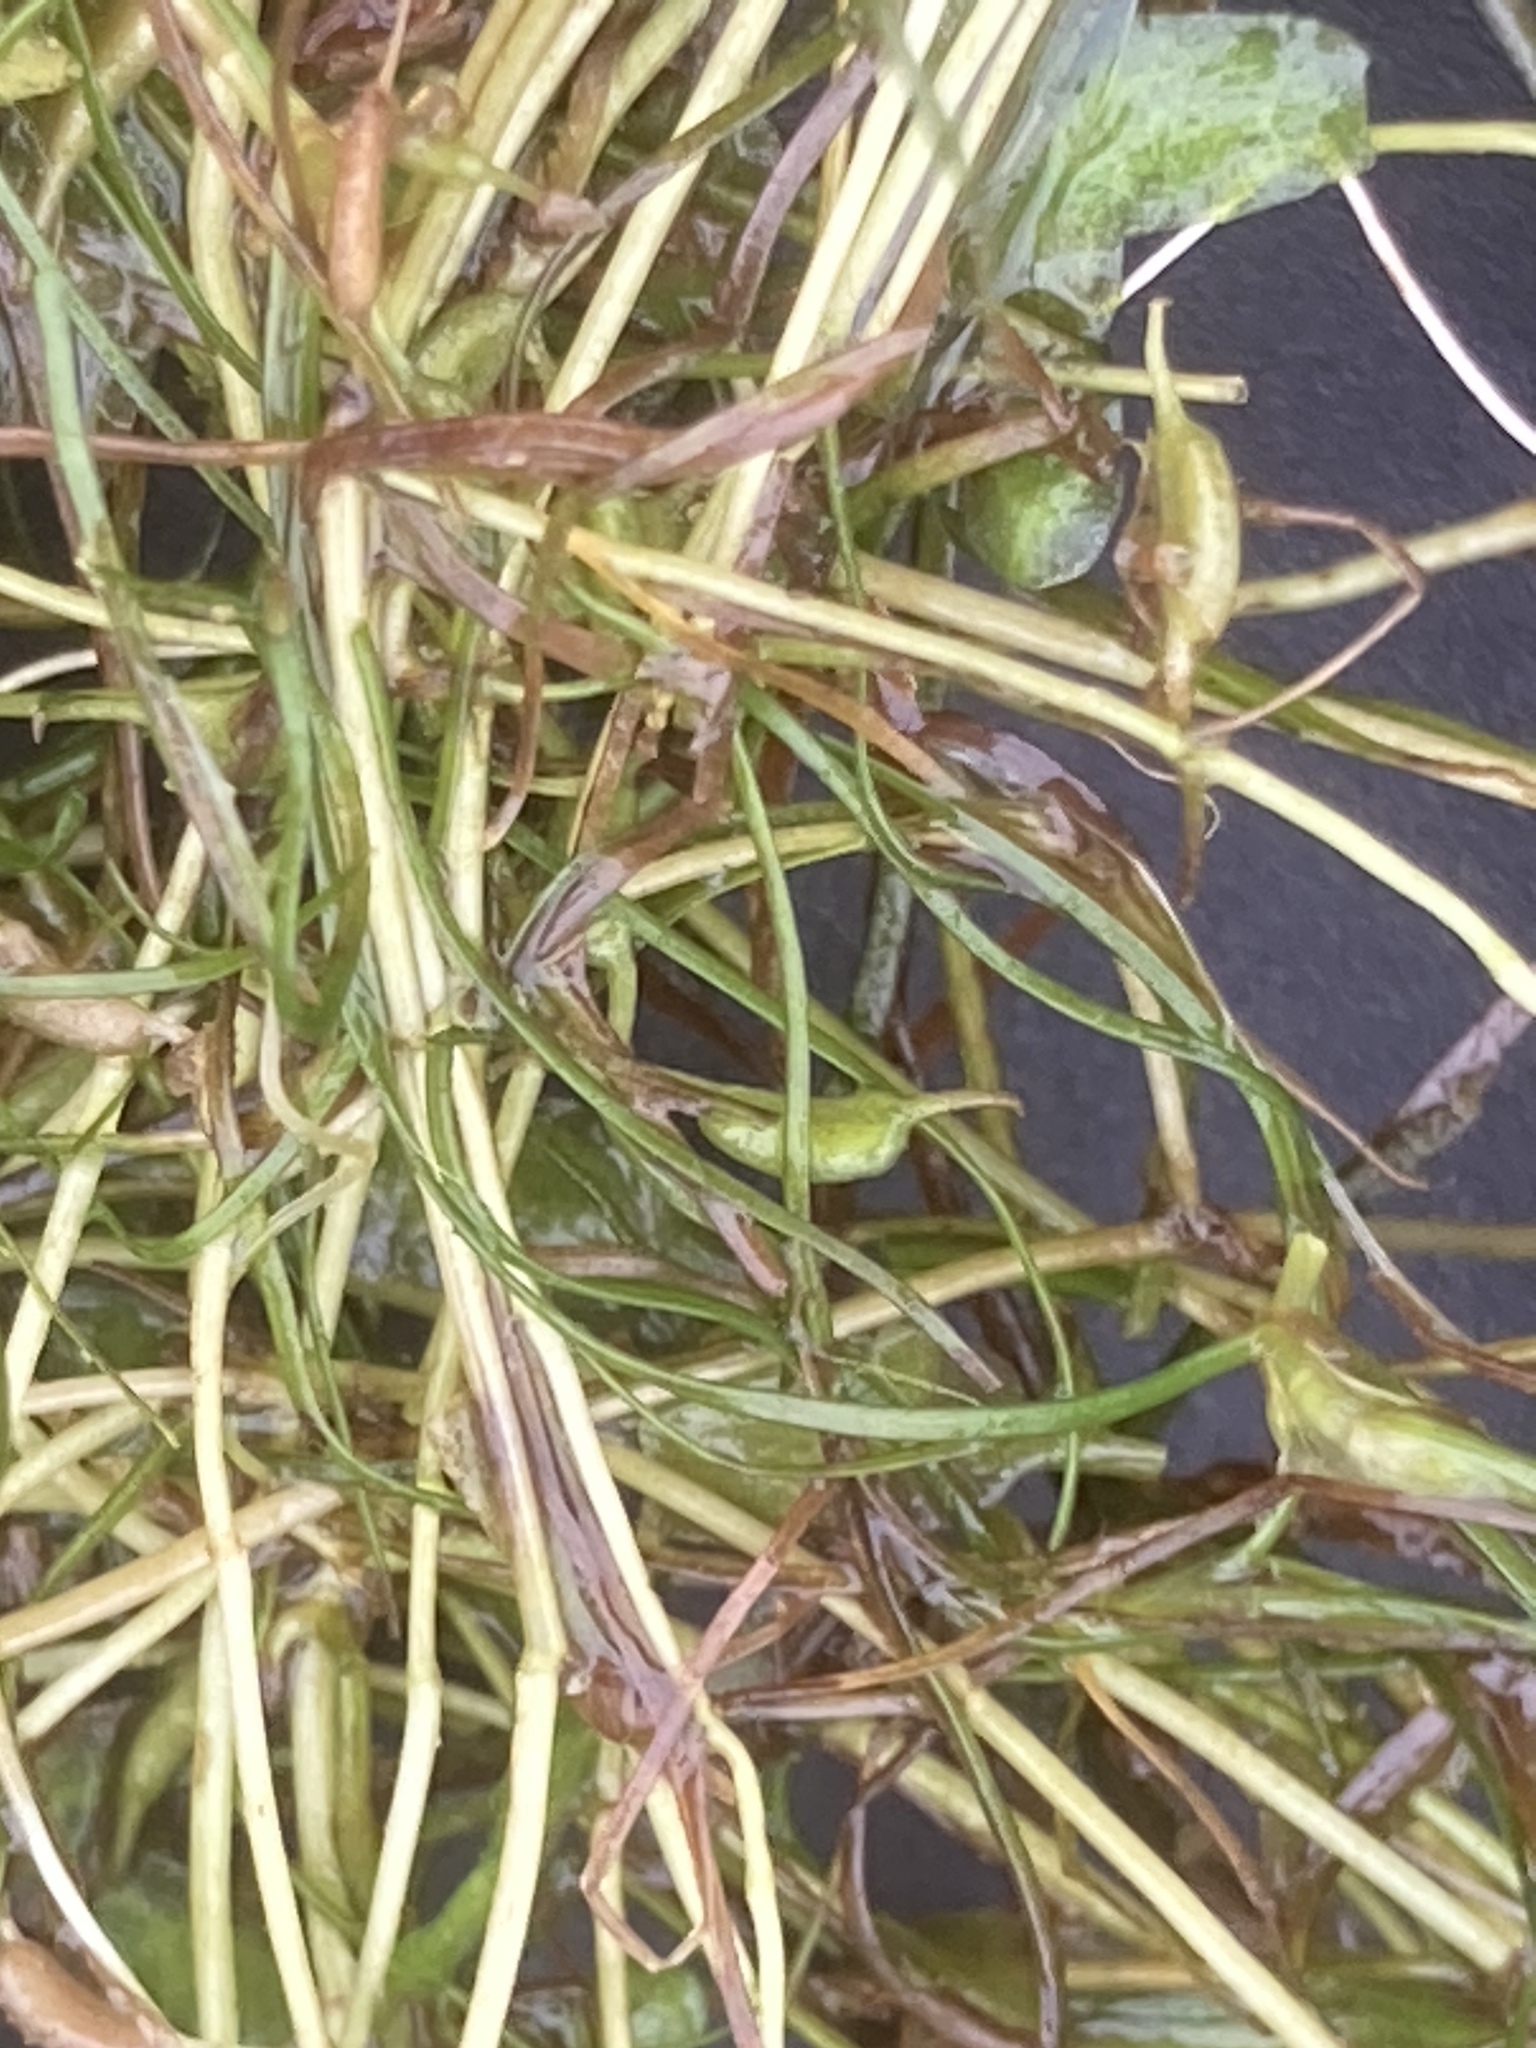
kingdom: Plantae
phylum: Tracheophyta
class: Liliopsida
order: Alismatales
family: Potamogetonaceae
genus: Zannichellia
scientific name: Zannichellia palustris
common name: Horned pondweed
